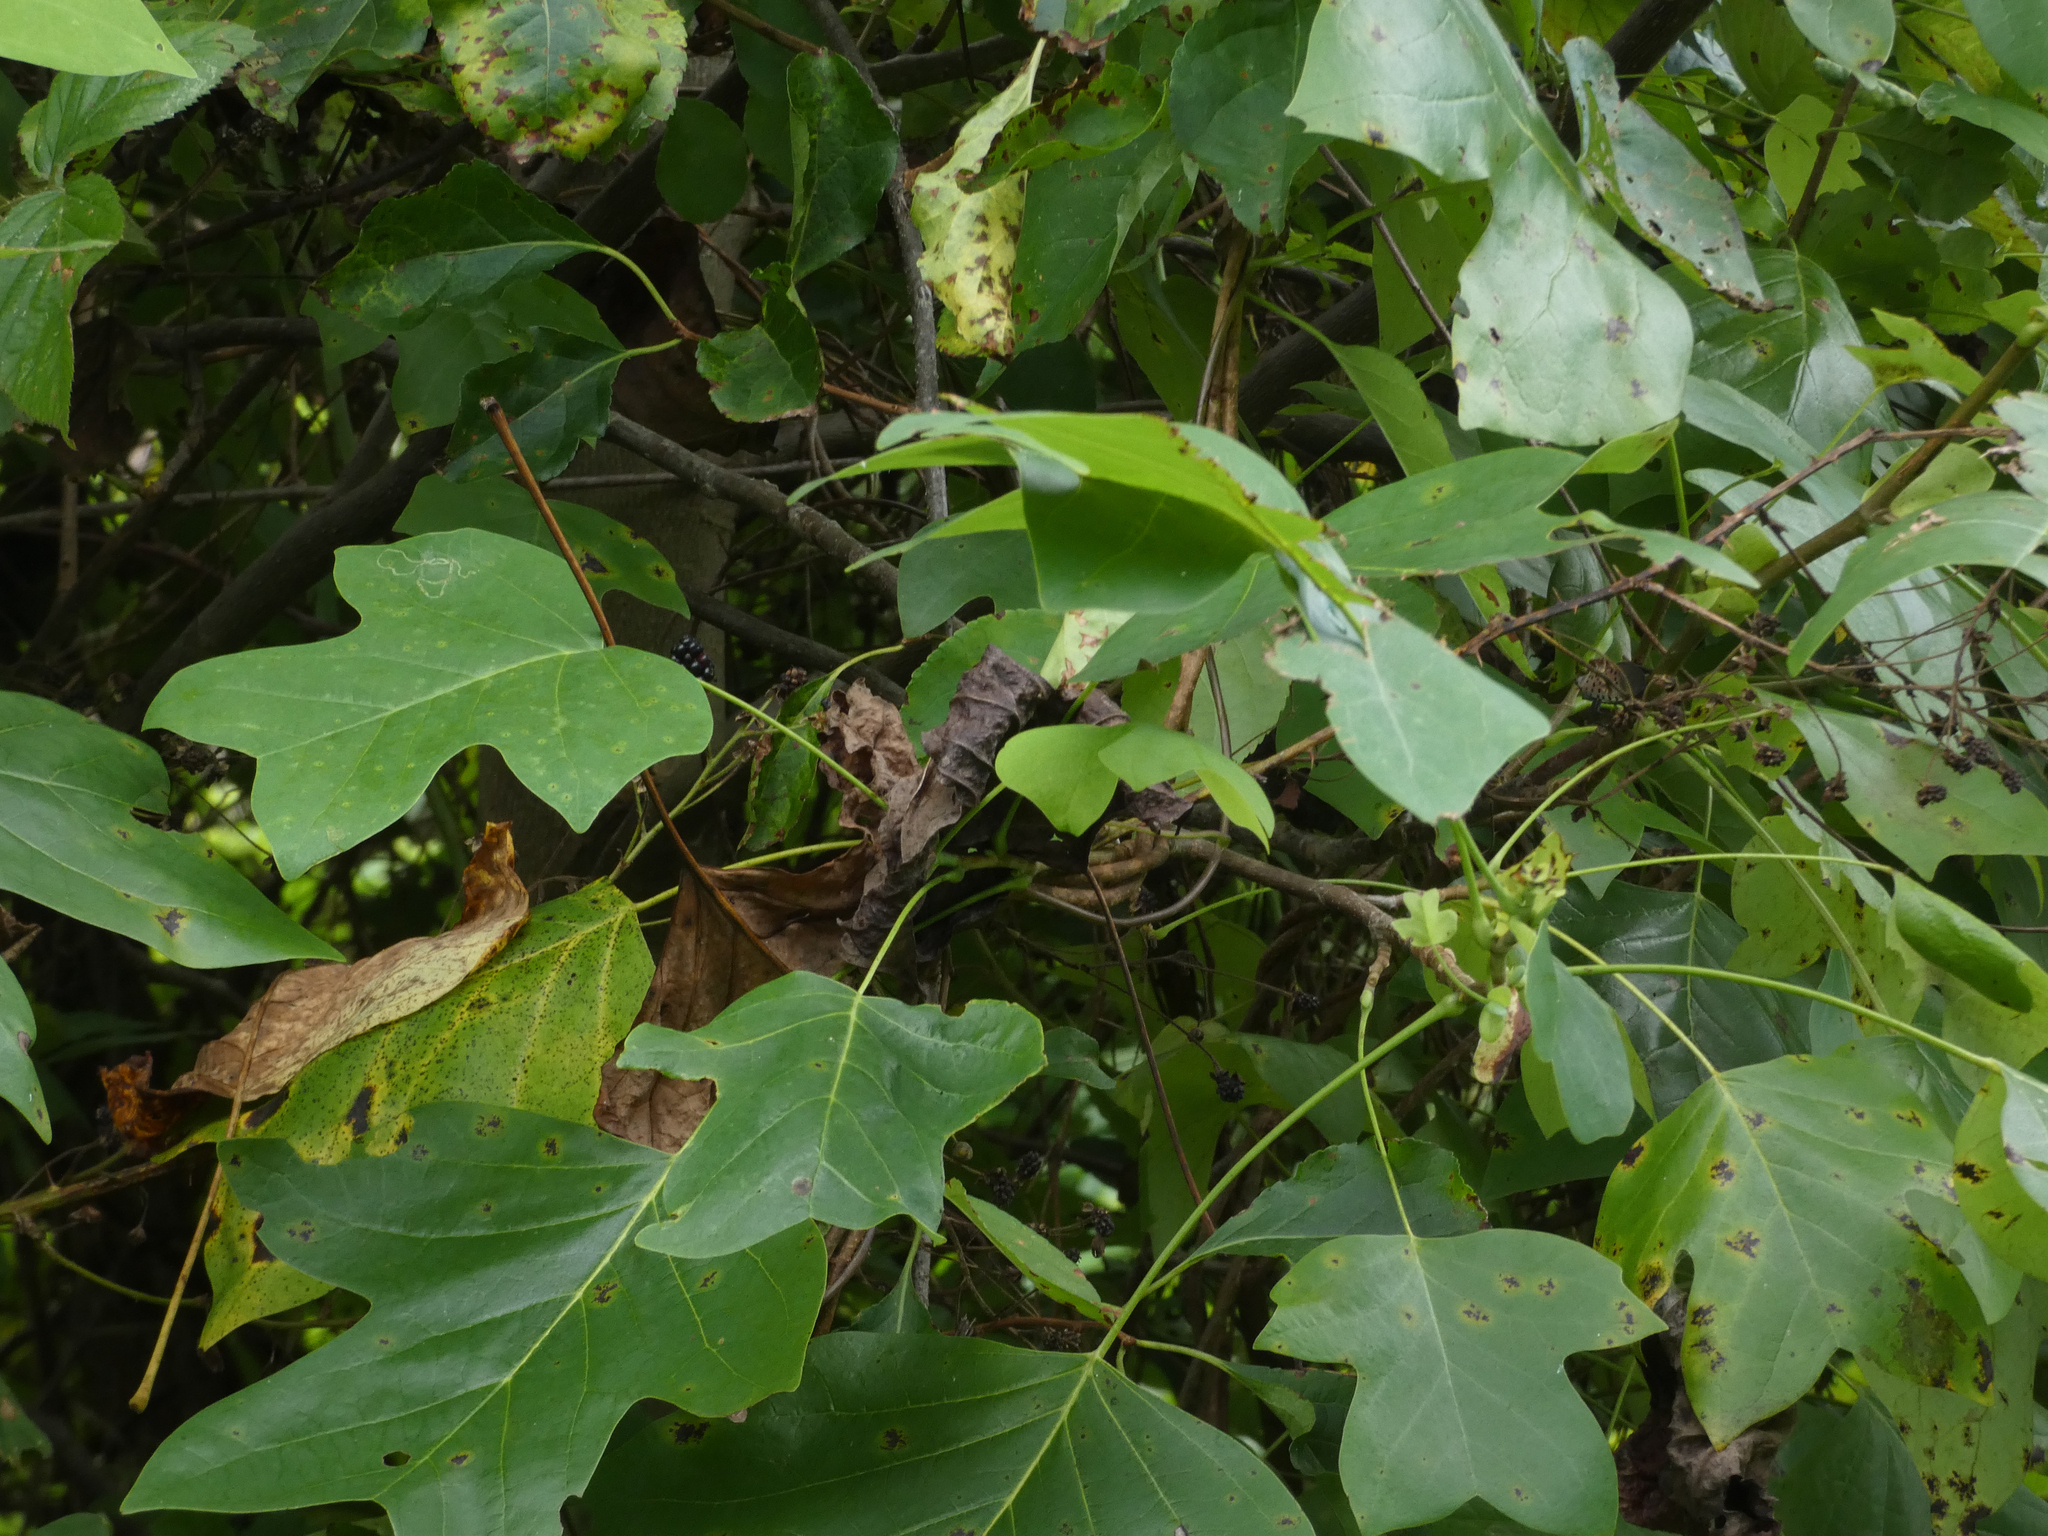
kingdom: Plantae
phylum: Tracheophyta
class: Magnoliopsida
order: Magnoliales
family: Magnoliaceae
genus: Liriodendron
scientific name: Liriodendron tulipifera
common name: Tulip tree
